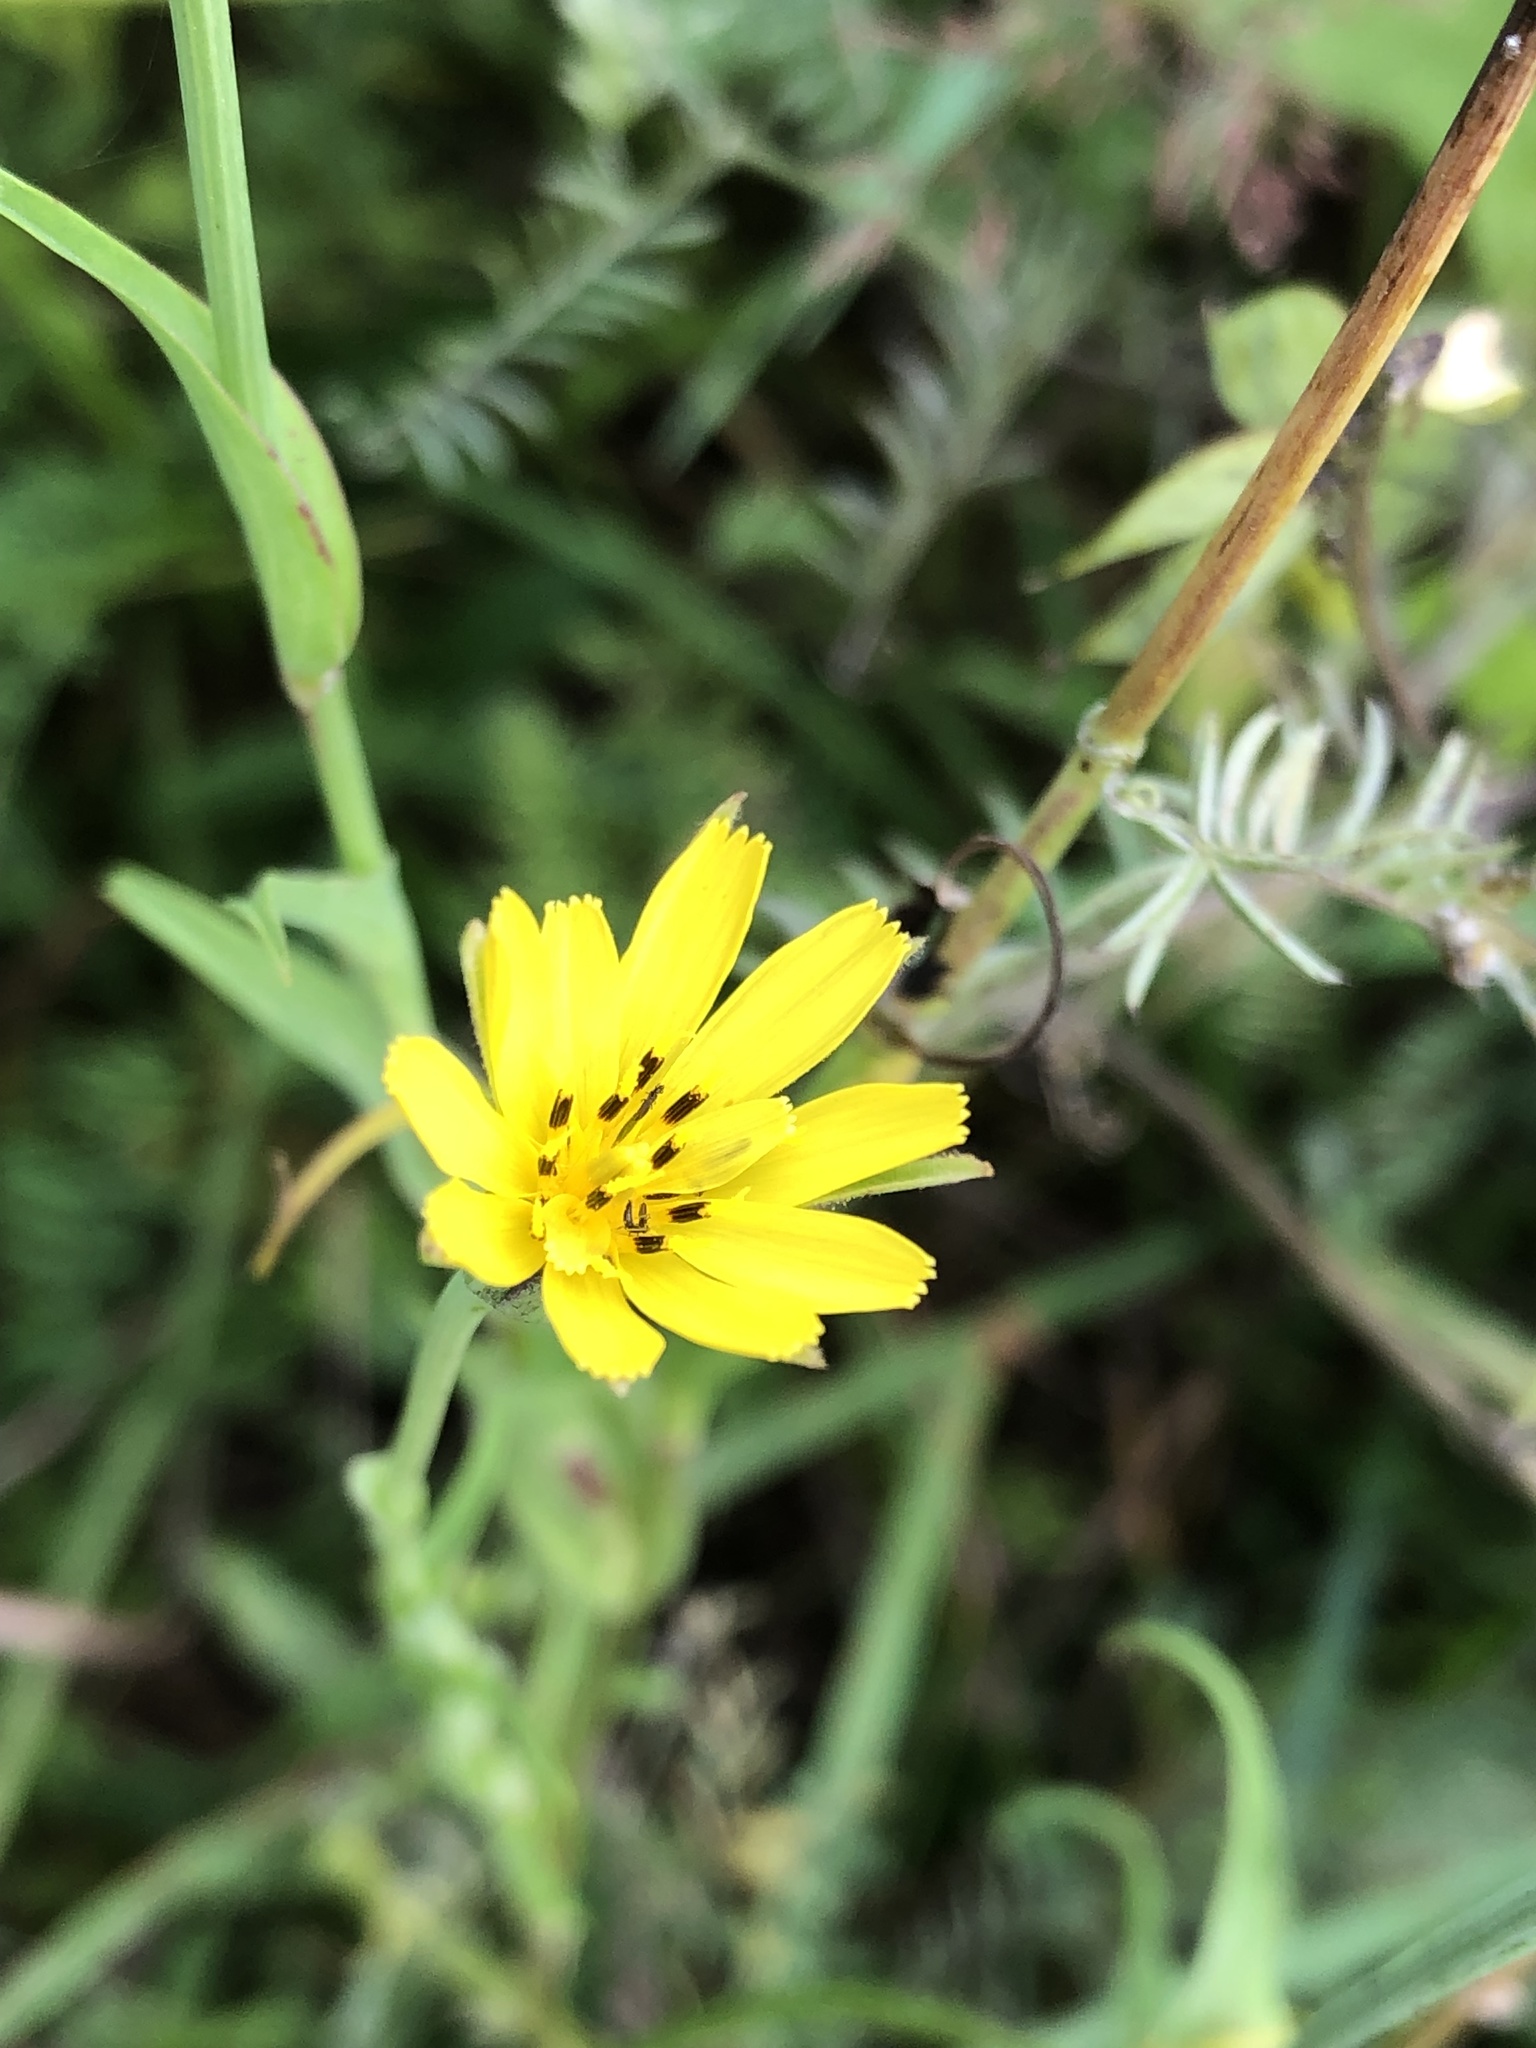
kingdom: Plantae
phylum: Tracheophyta
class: Magnoliopsida
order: Asterales
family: Asteraceae
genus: Tragopogon
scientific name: Tragopogon pratensis
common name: Goat's-beard
